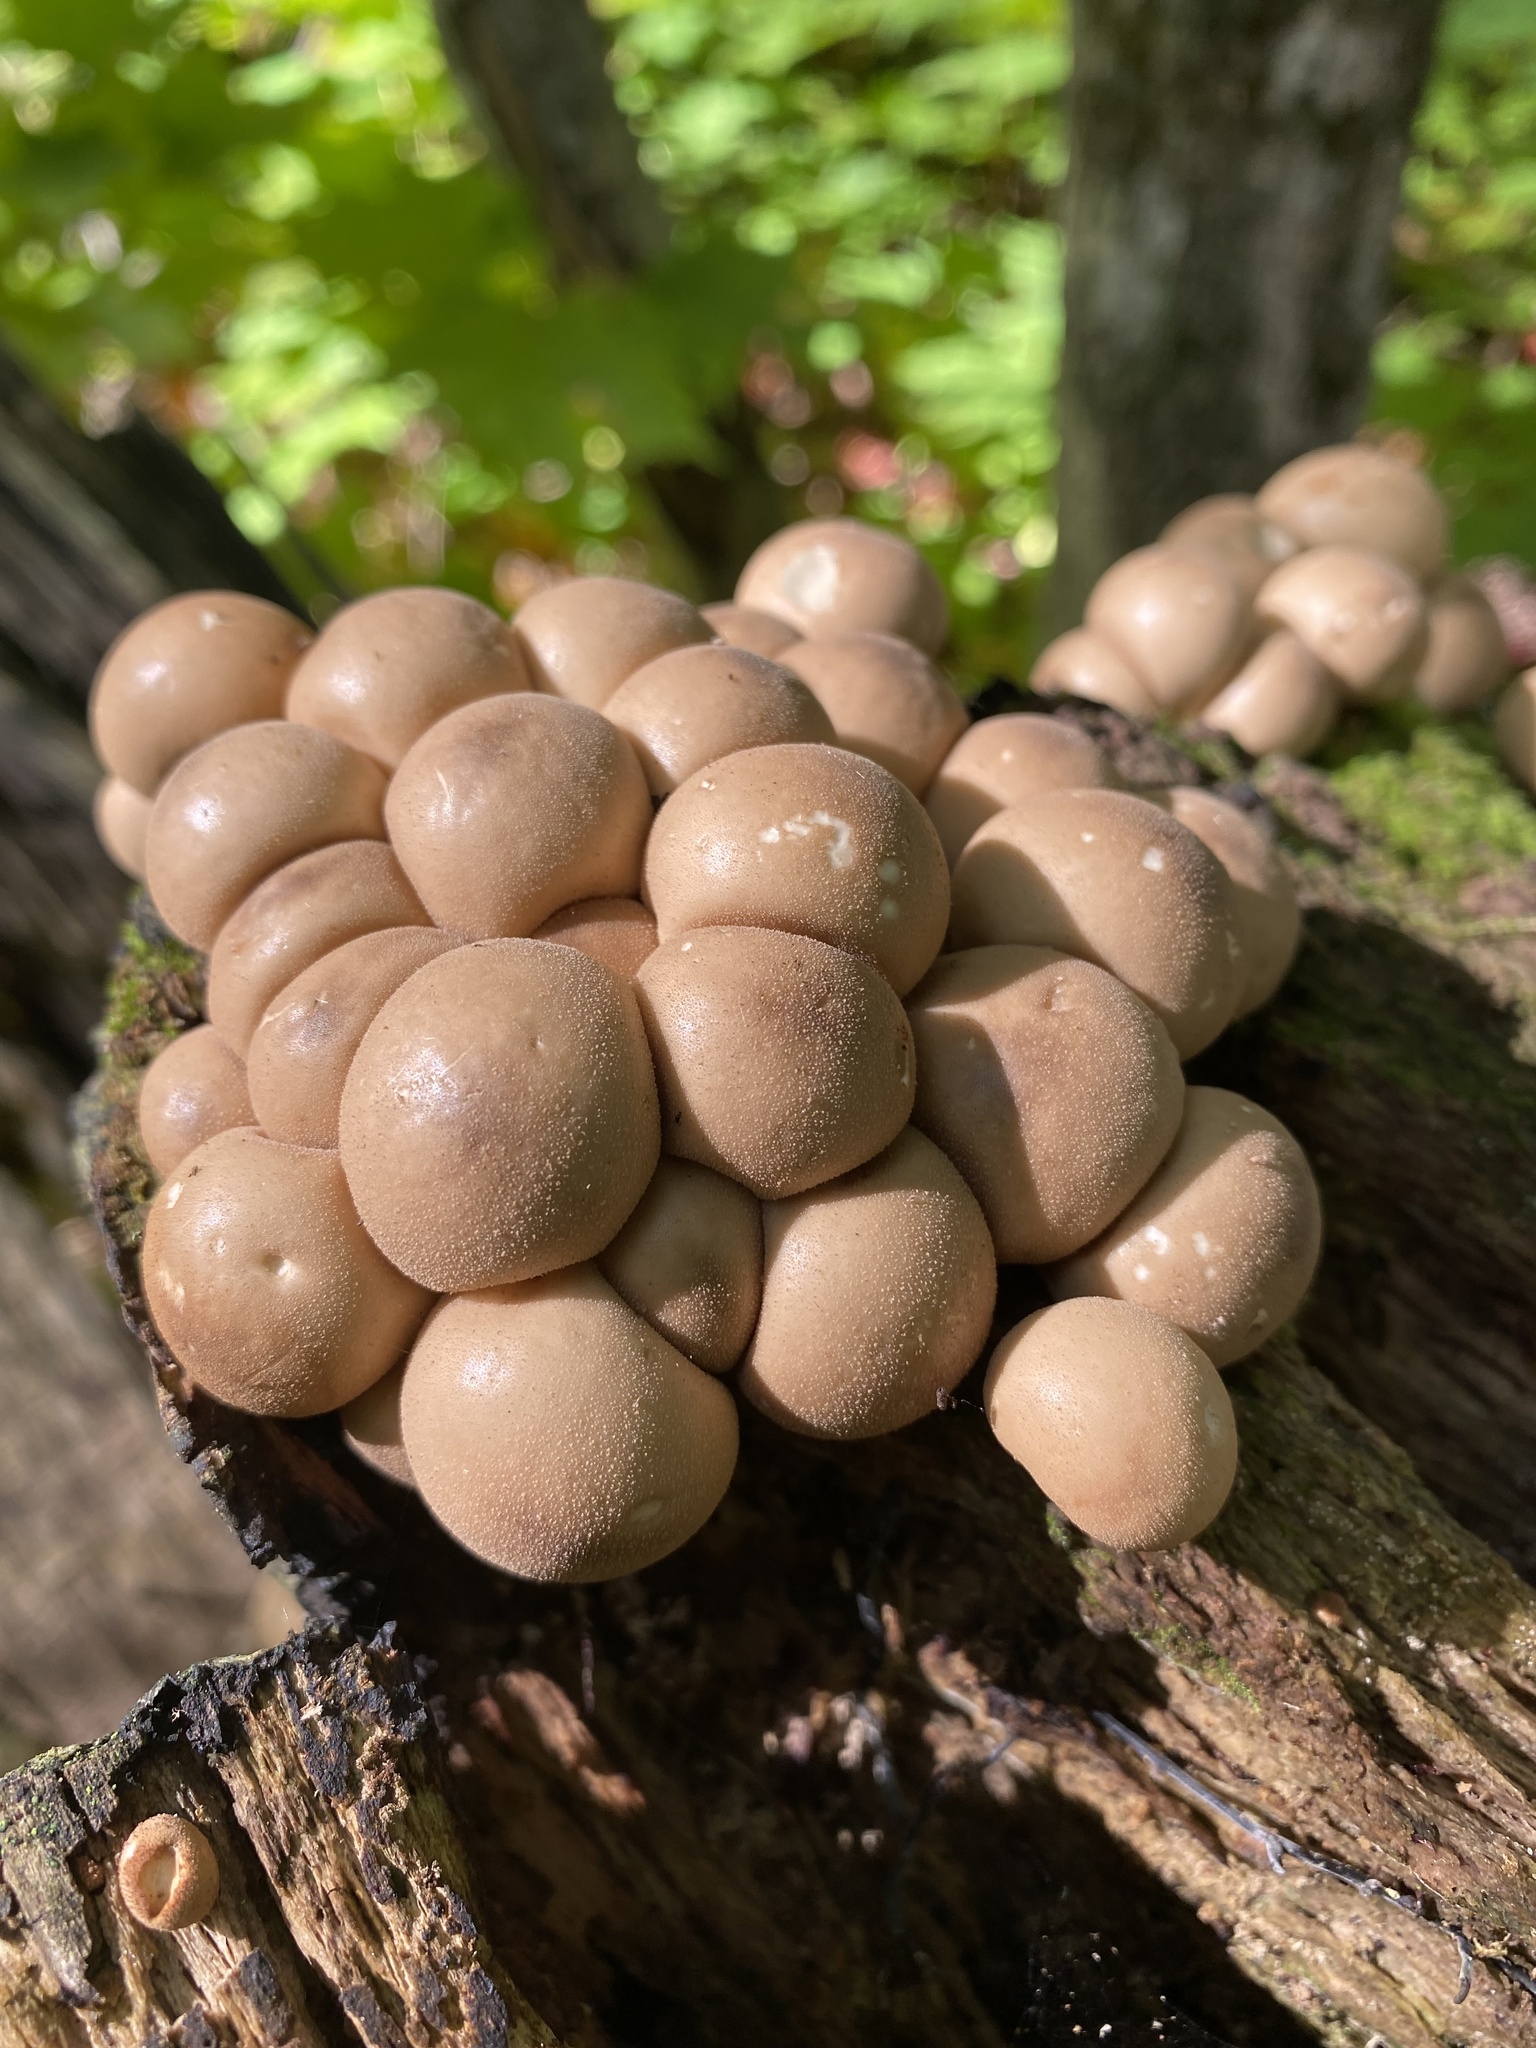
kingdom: Fungi
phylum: Basidiomycota
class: Agaricomycetes
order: Agaricales
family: Lycoperdaceae
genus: Apioperdon
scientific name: Apioperdon pyriforme
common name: Pear-shaped puffball
